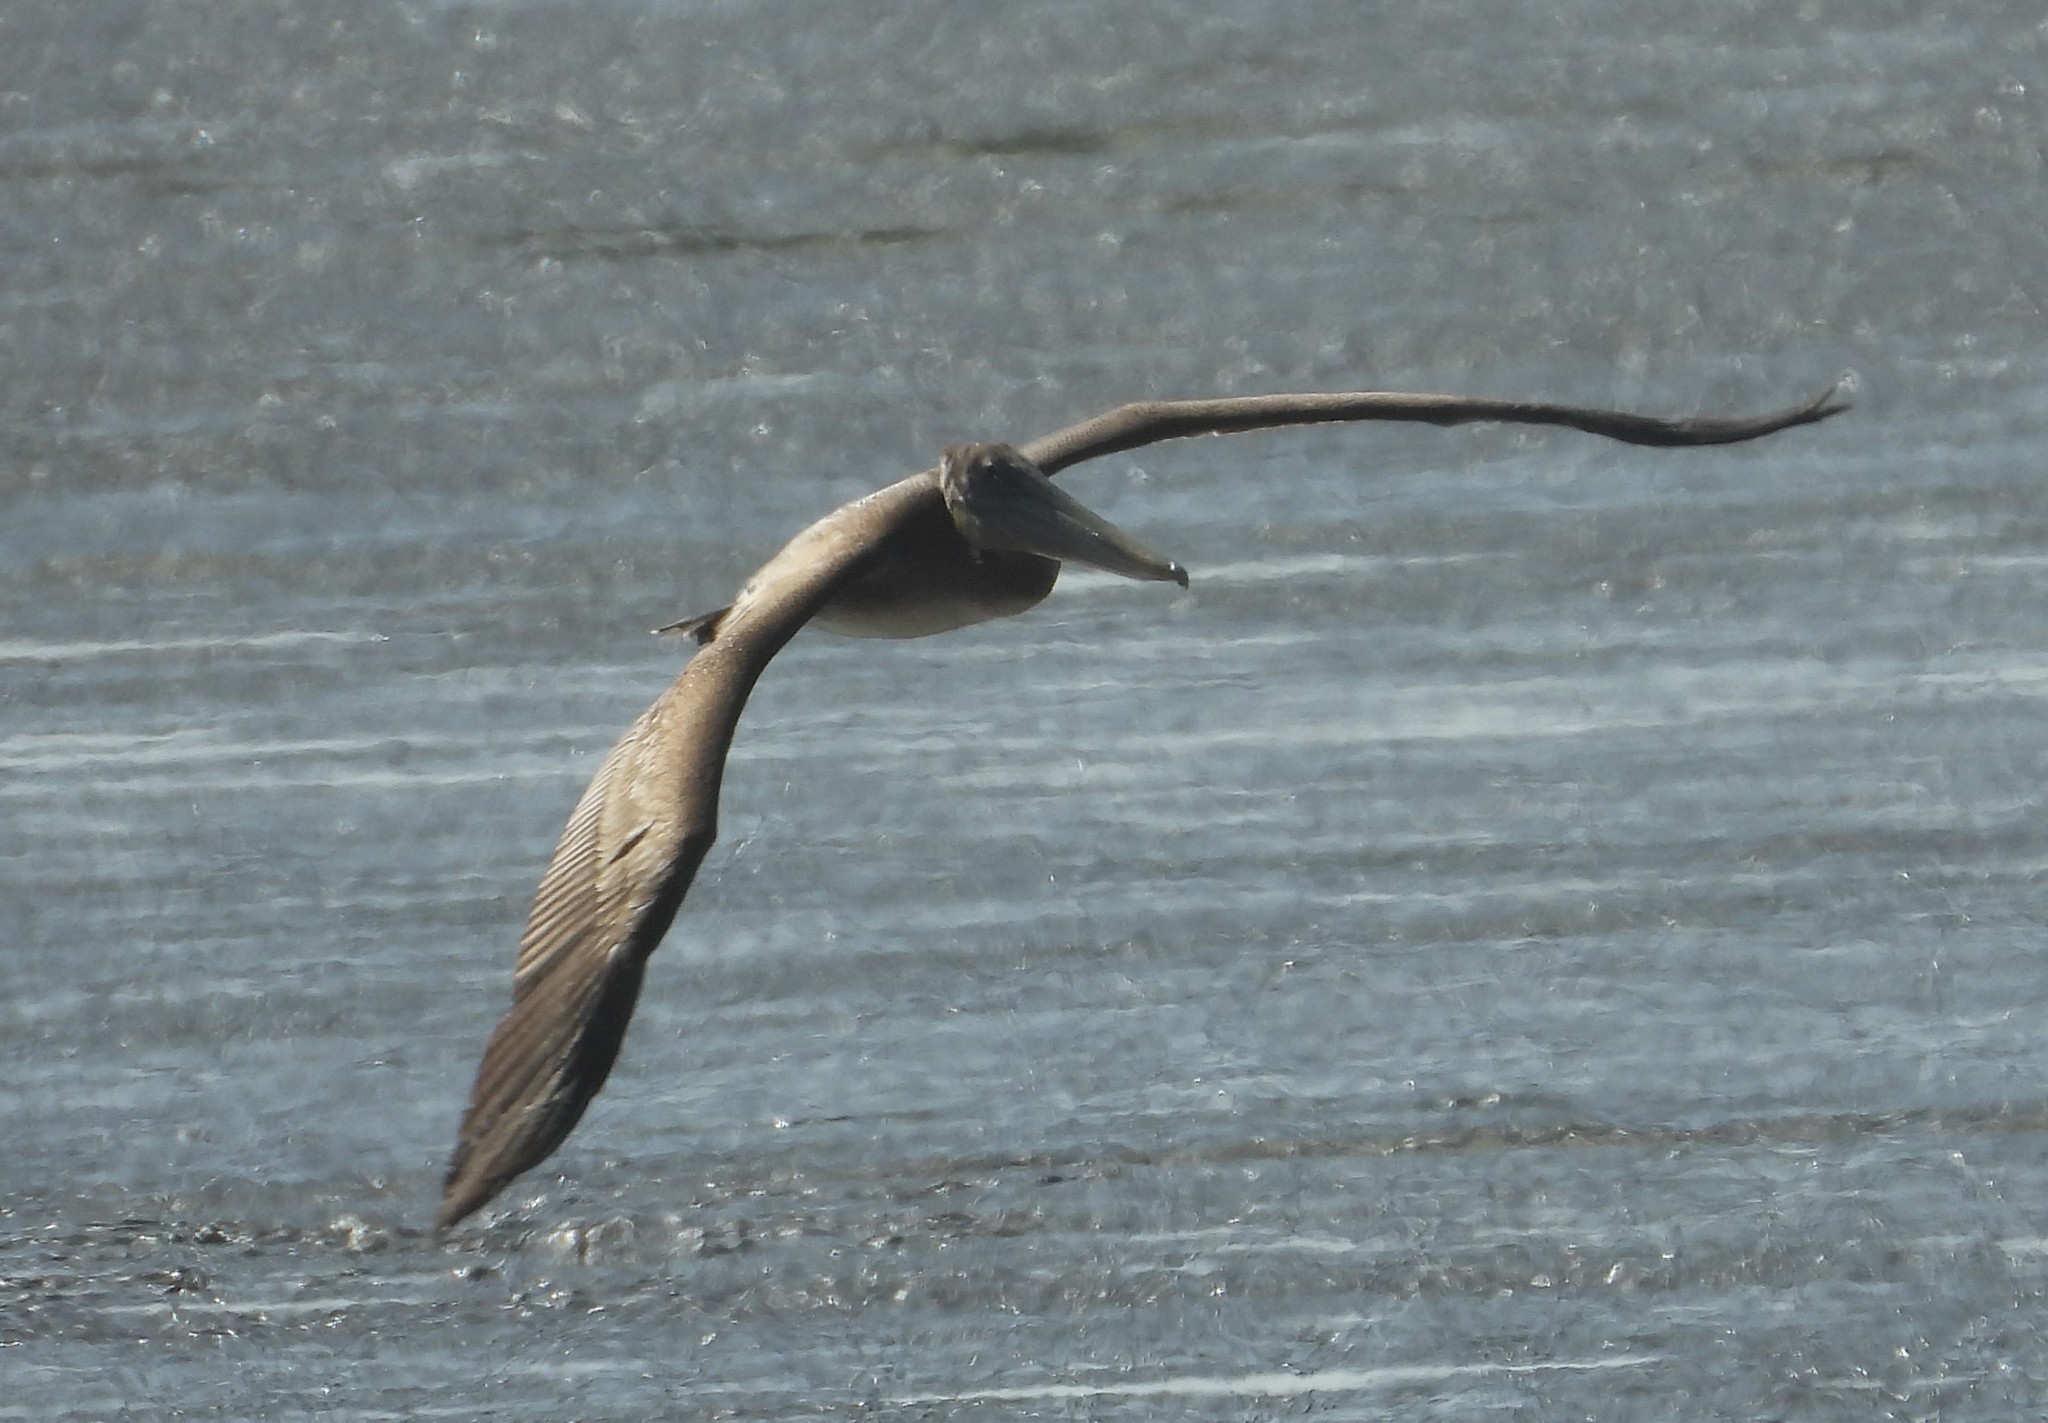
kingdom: Animalia
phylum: Chordata
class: Aves
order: Pelecaniformes
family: Pelecanidae
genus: Pelecanus
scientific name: Pelecanus occidentalis
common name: Brown pelican
